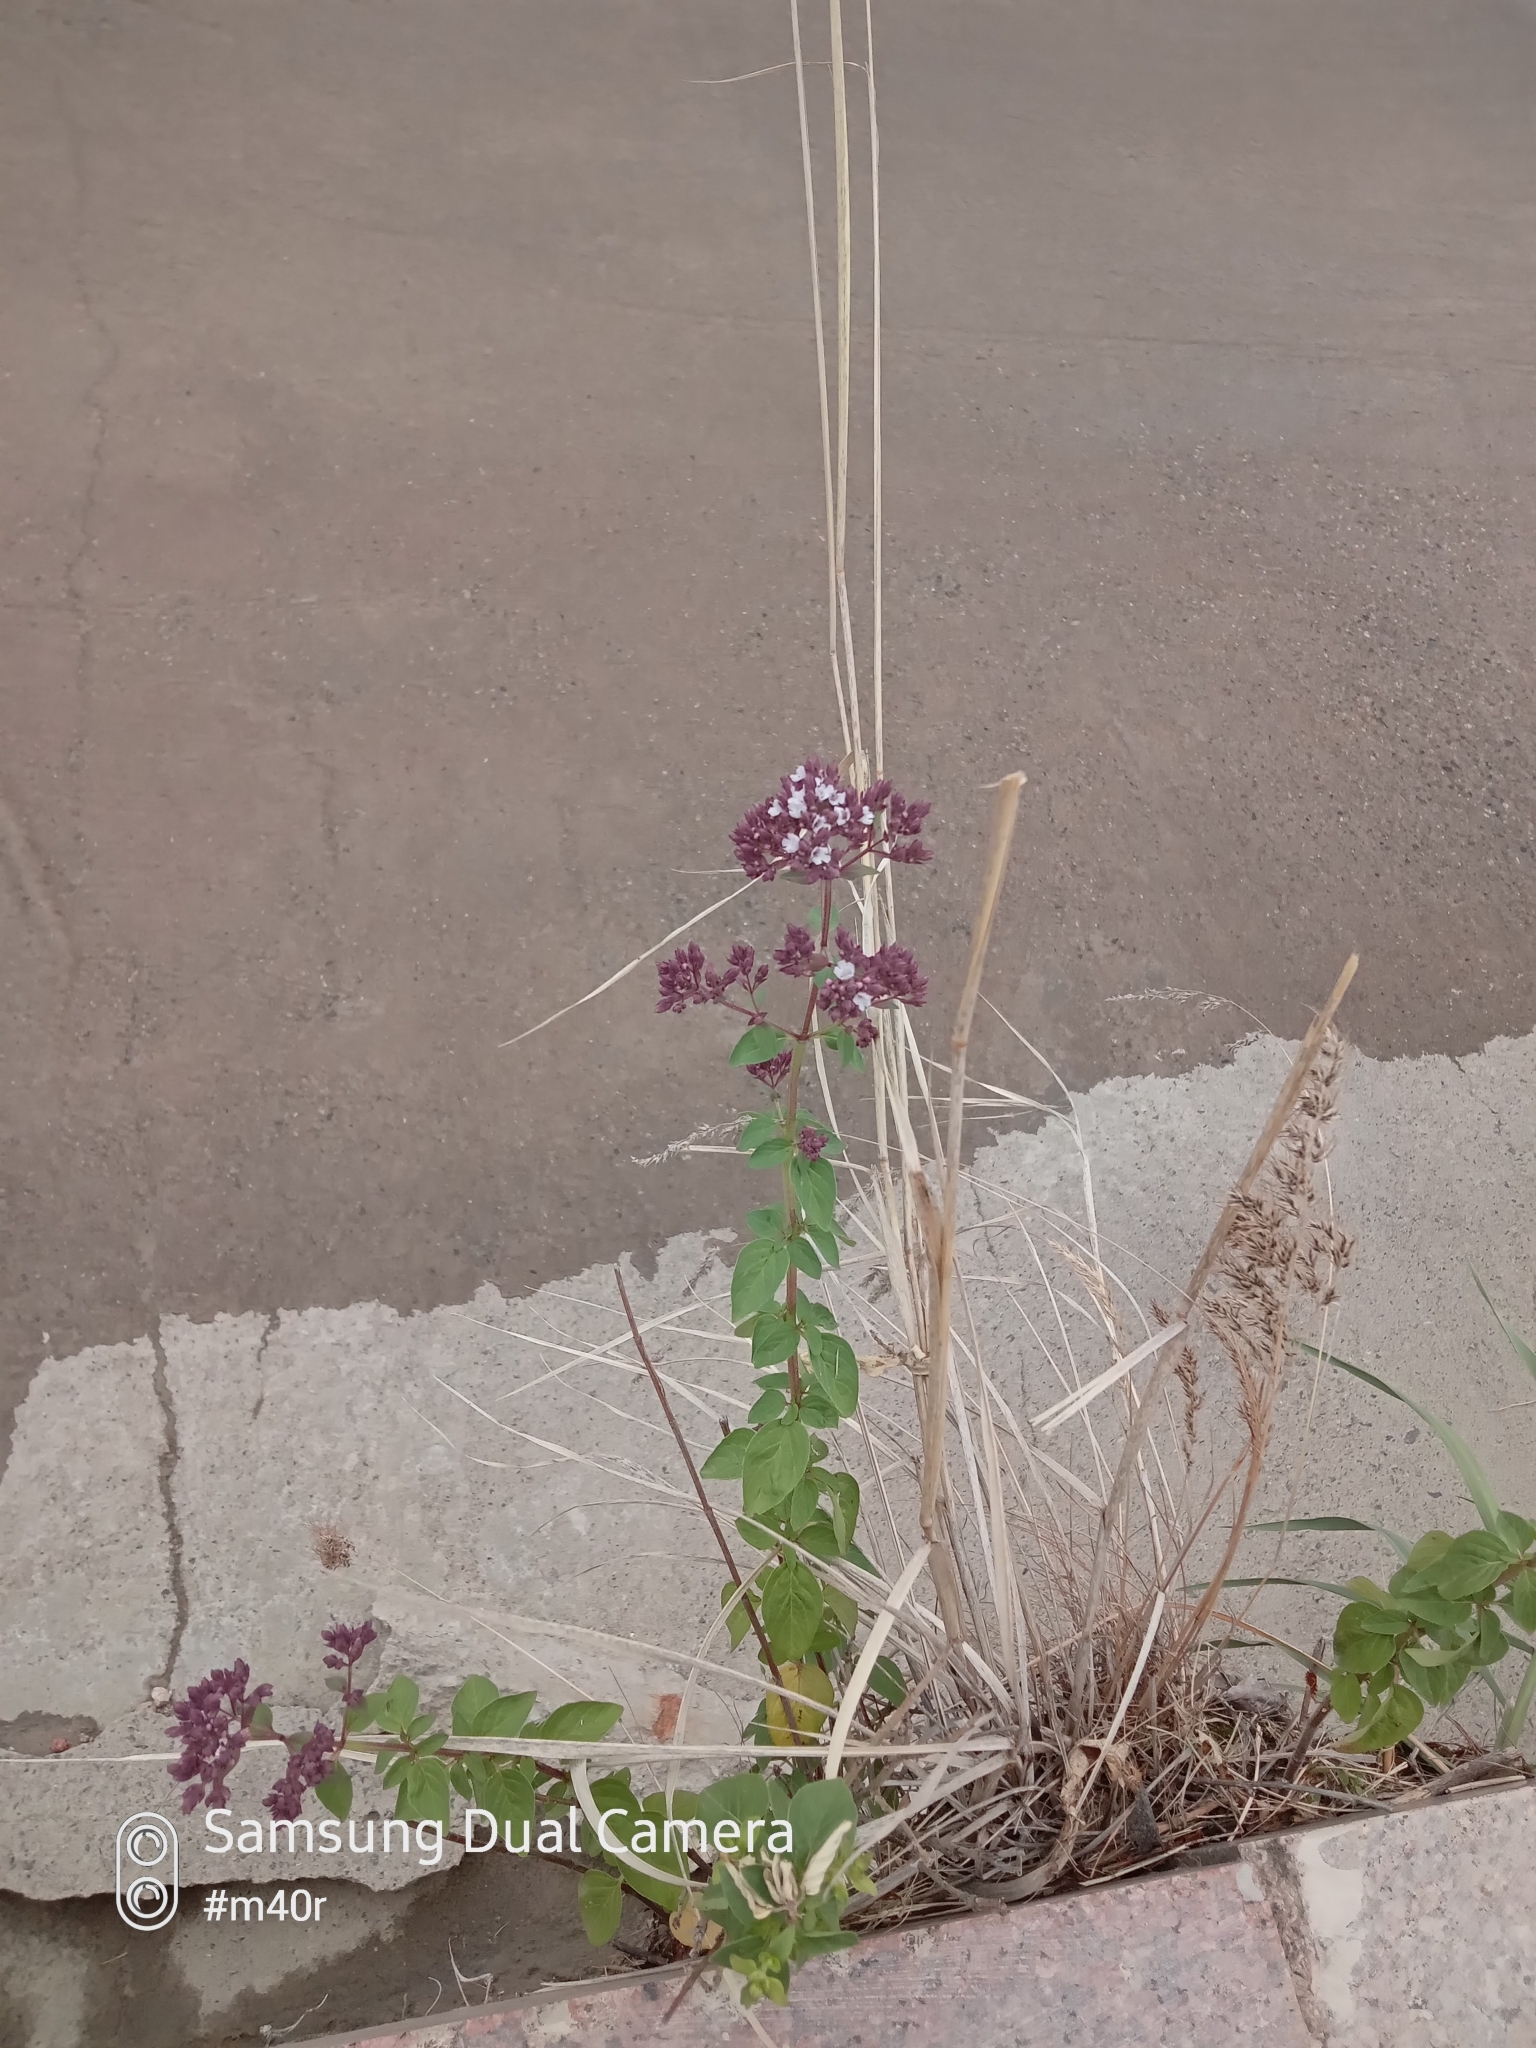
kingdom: Plantae
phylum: Tracheophyta
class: Magnoliopsida
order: Lamiales
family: Lamiaceae
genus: Origanum
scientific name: Origanum vulgare
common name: Wild marjoram
